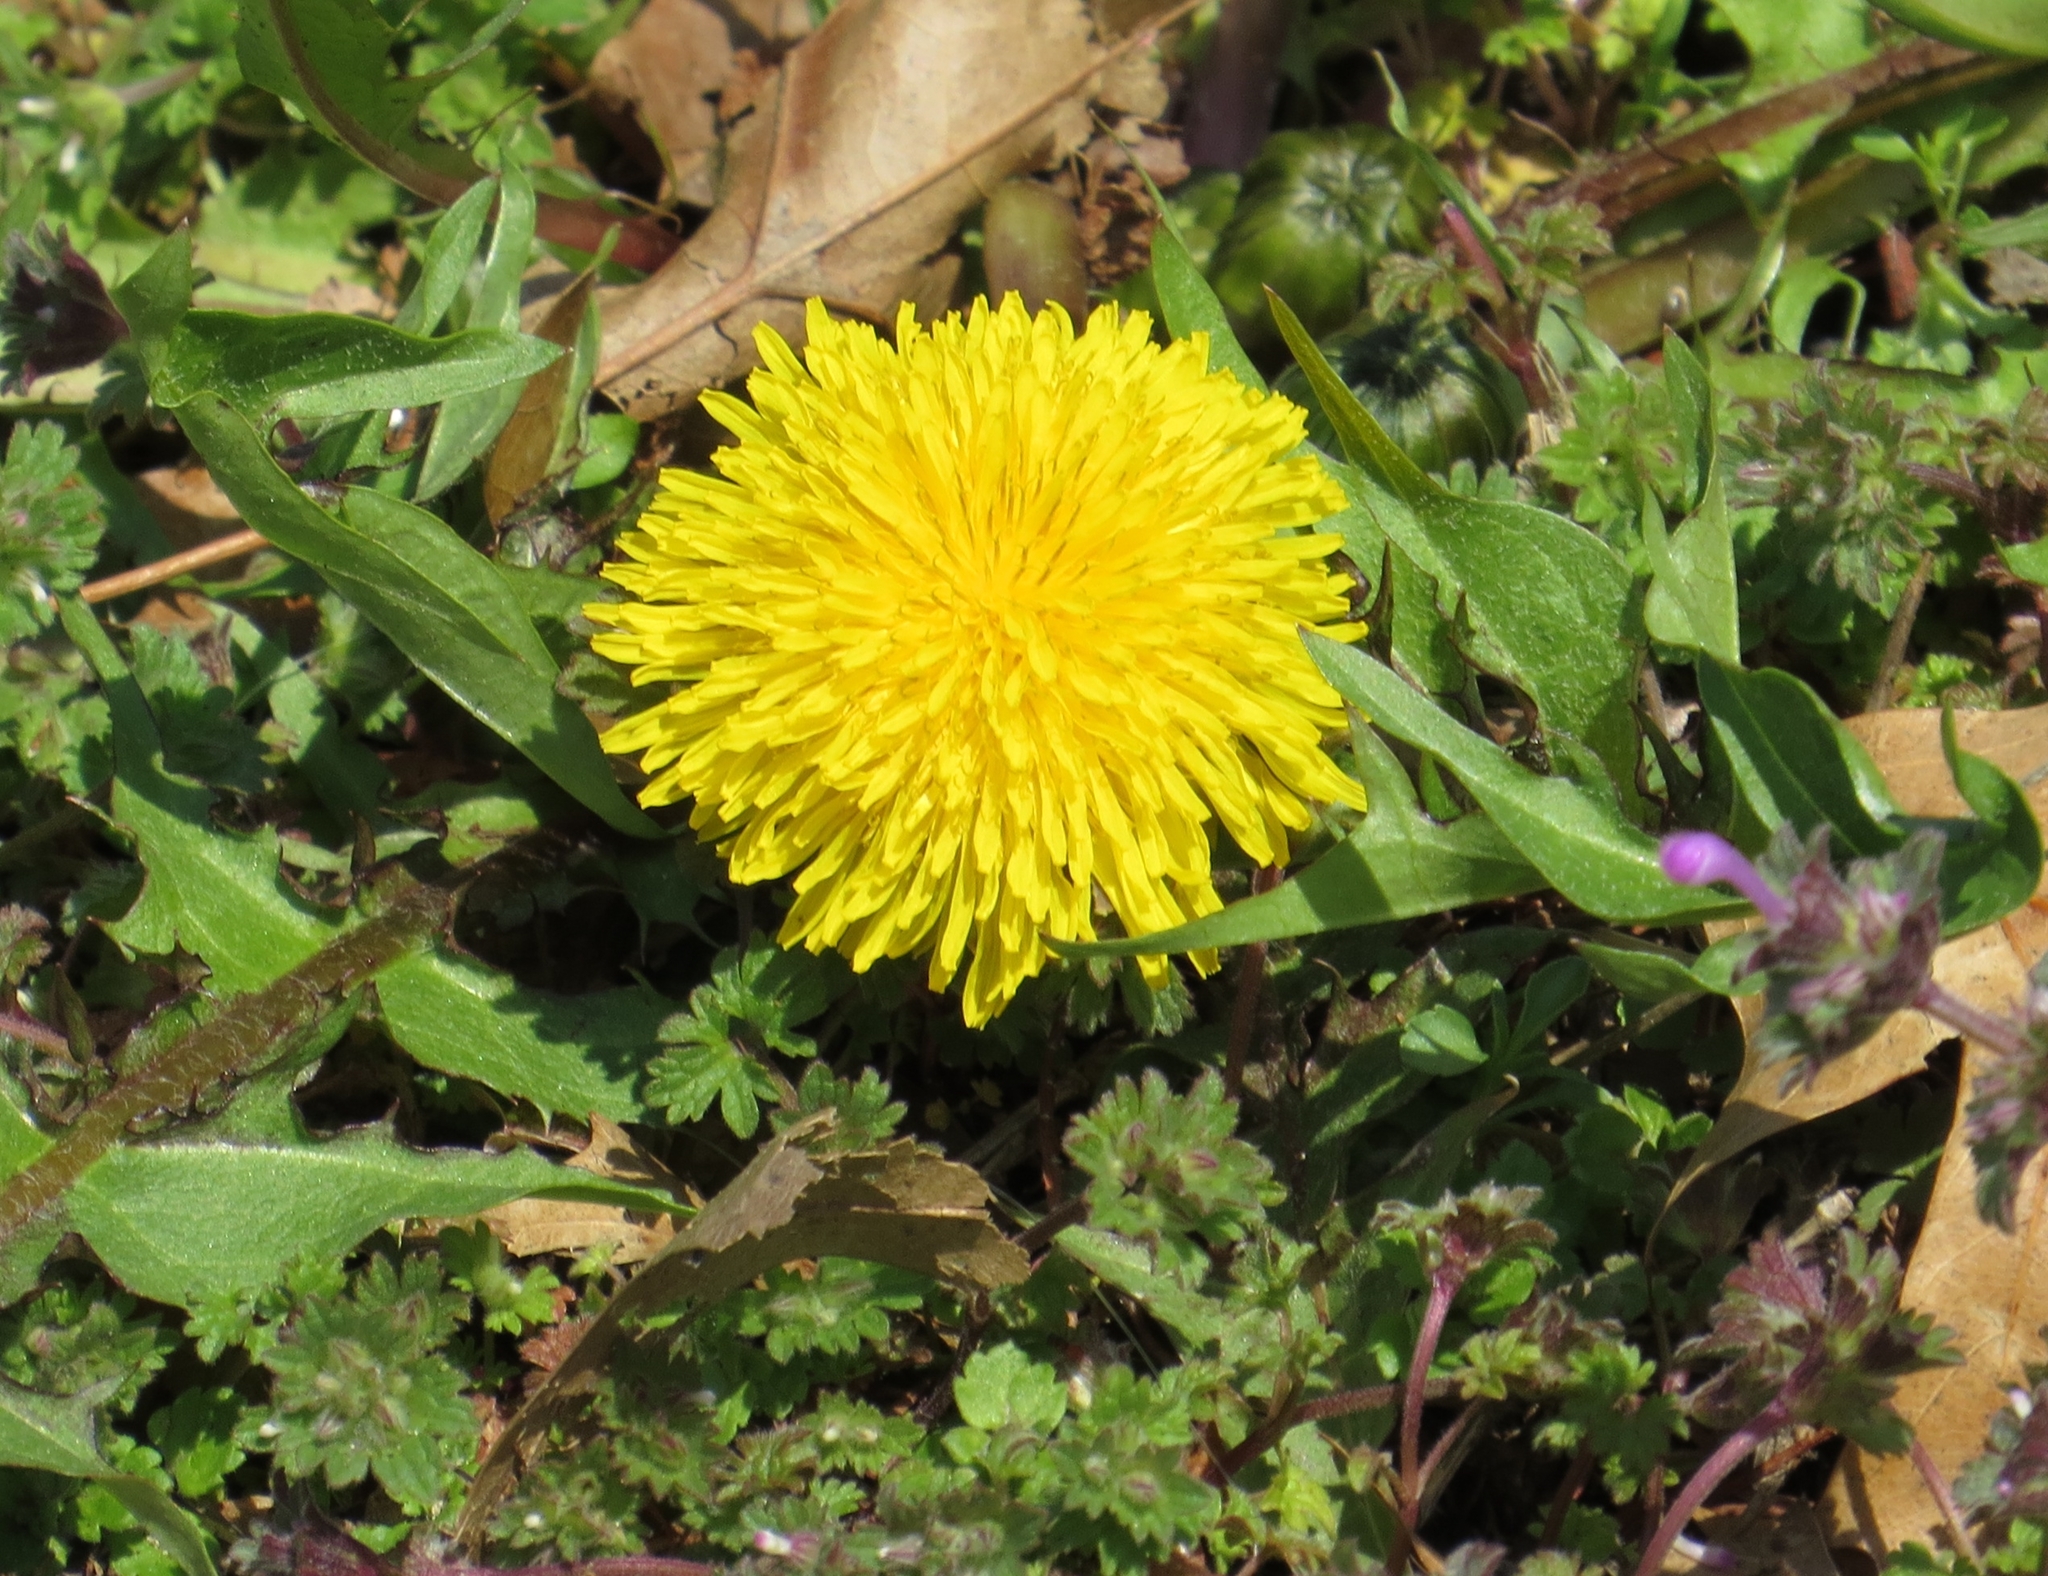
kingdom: Plantae
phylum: Tracheophyta
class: Magnoliopsida
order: Asterales
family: Asteraceae
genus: Taraxacum
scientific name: Taraxacum
